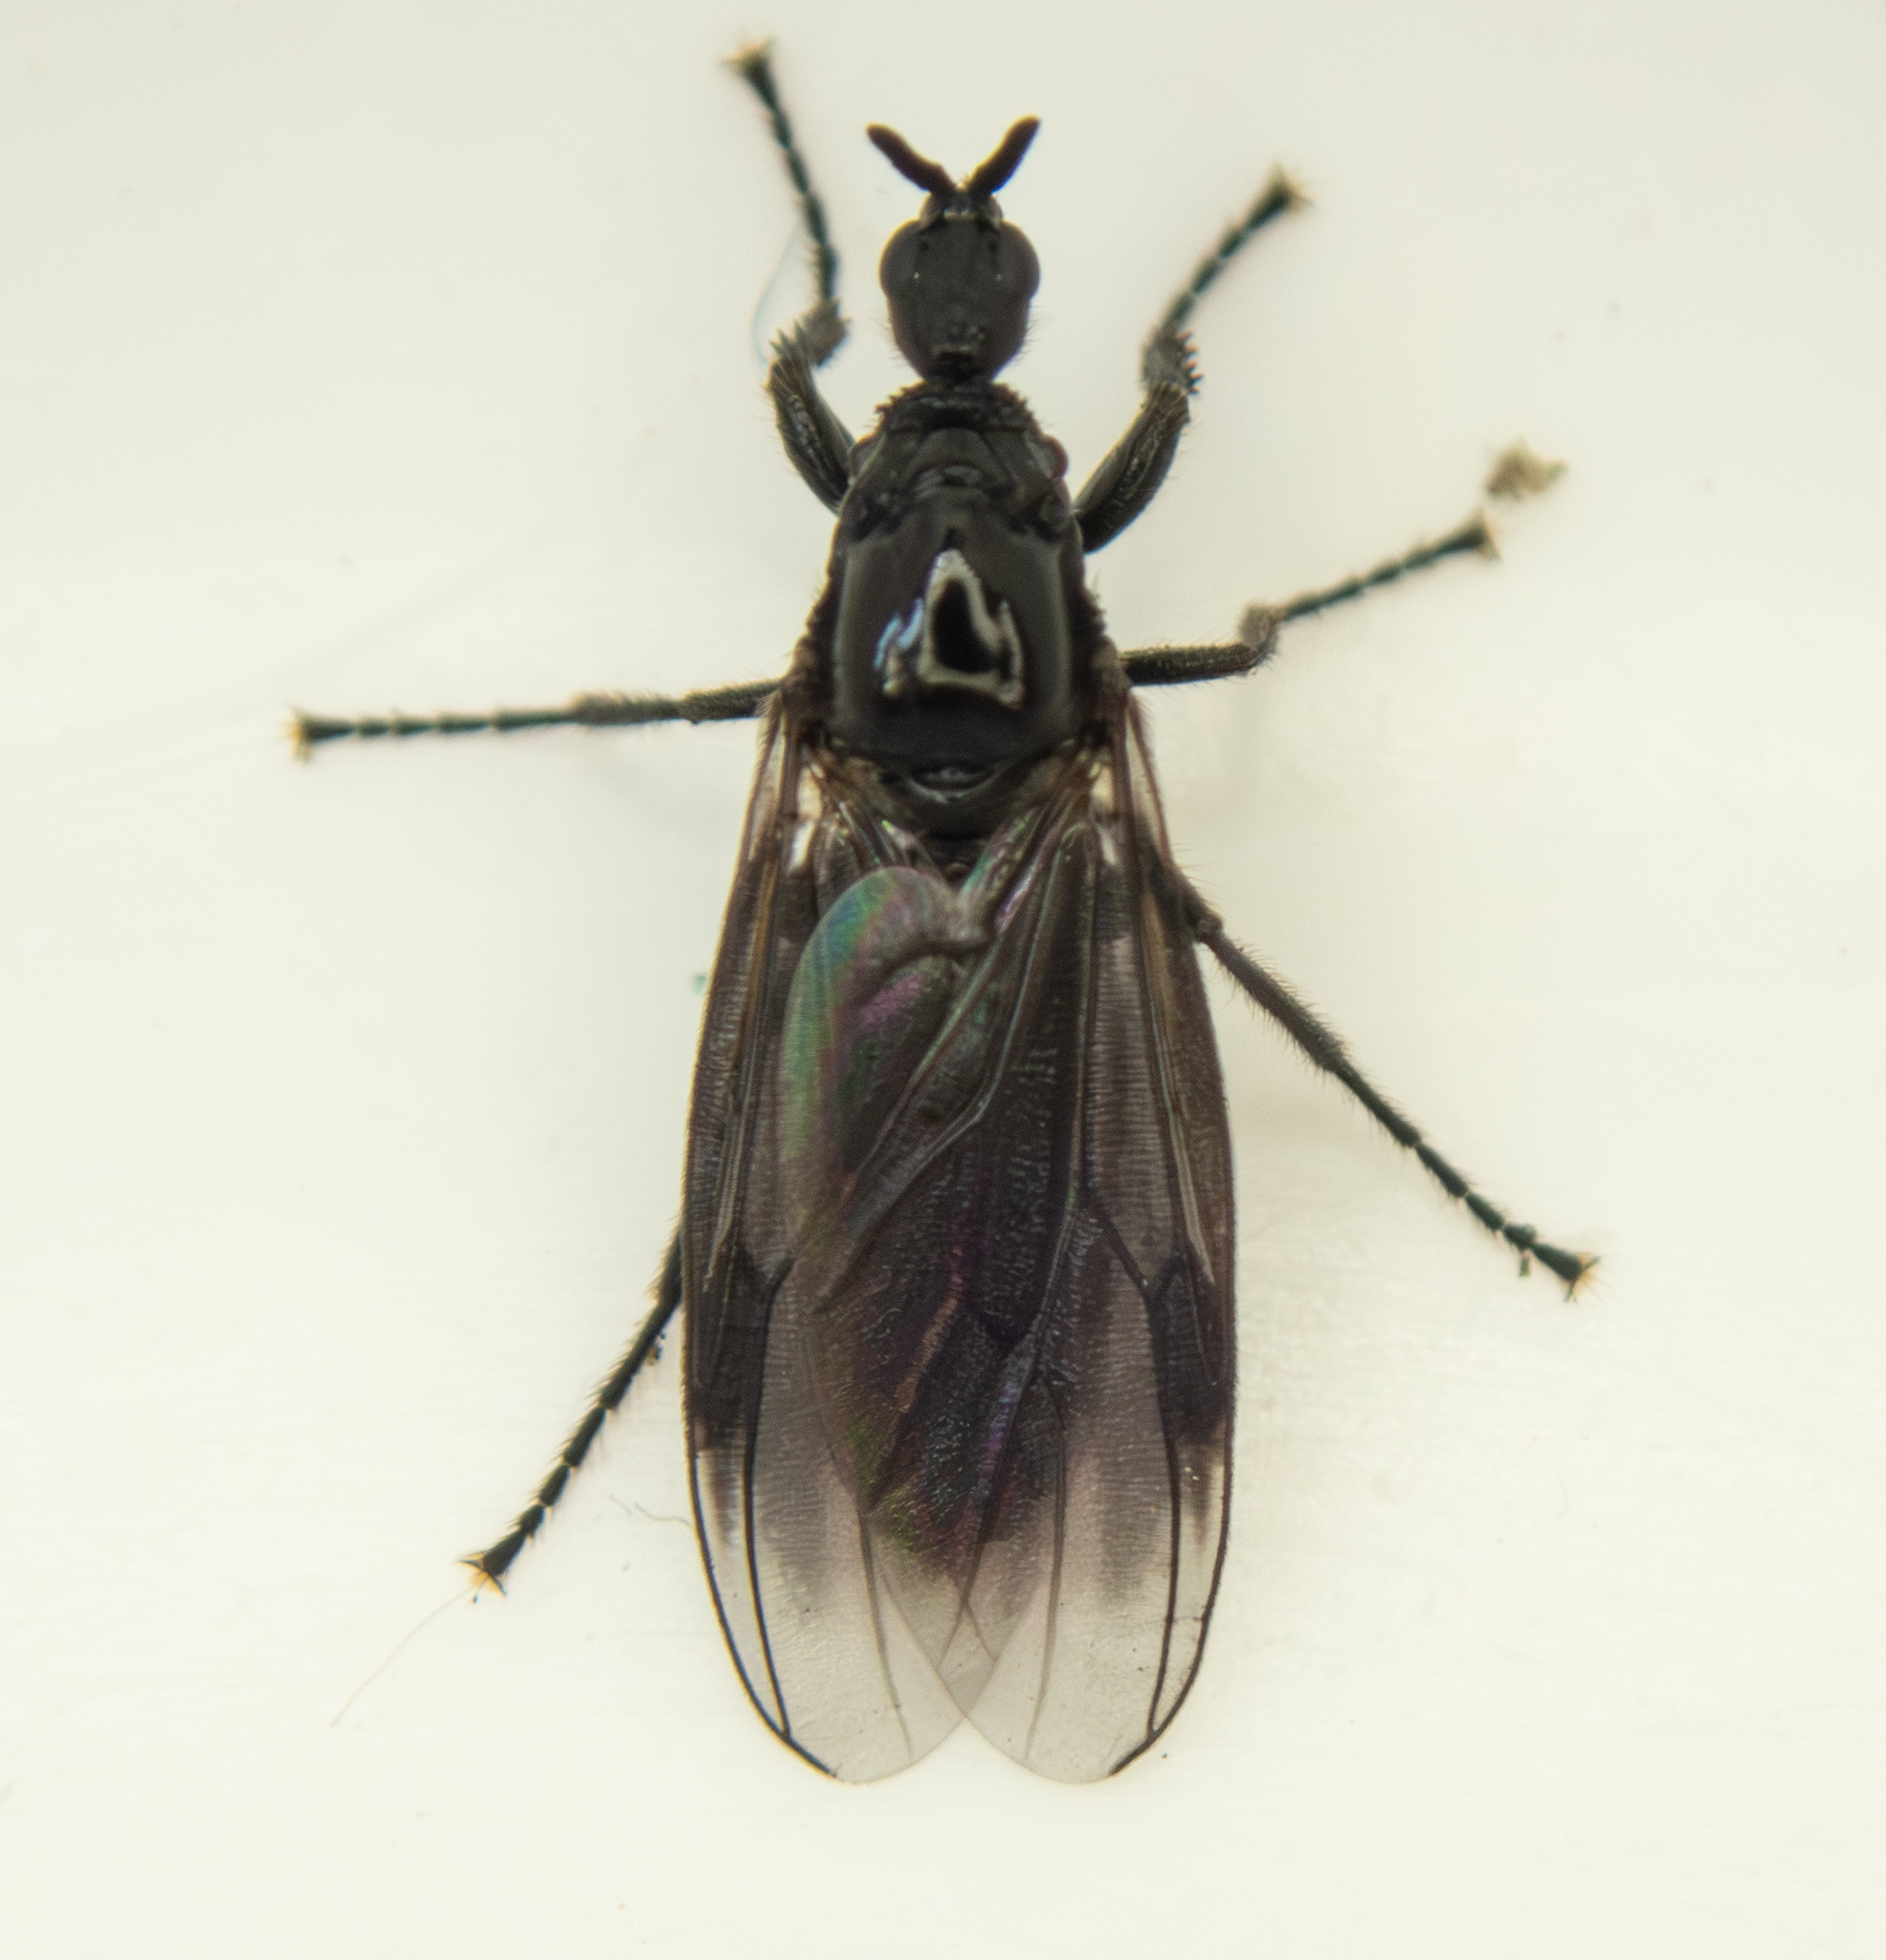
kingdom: Animalia
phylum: Arthropoda
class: Insecta
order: Diptera
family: Bibionidae
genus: Dilophus
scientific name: Dilophus febrilis
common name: Fever fly
